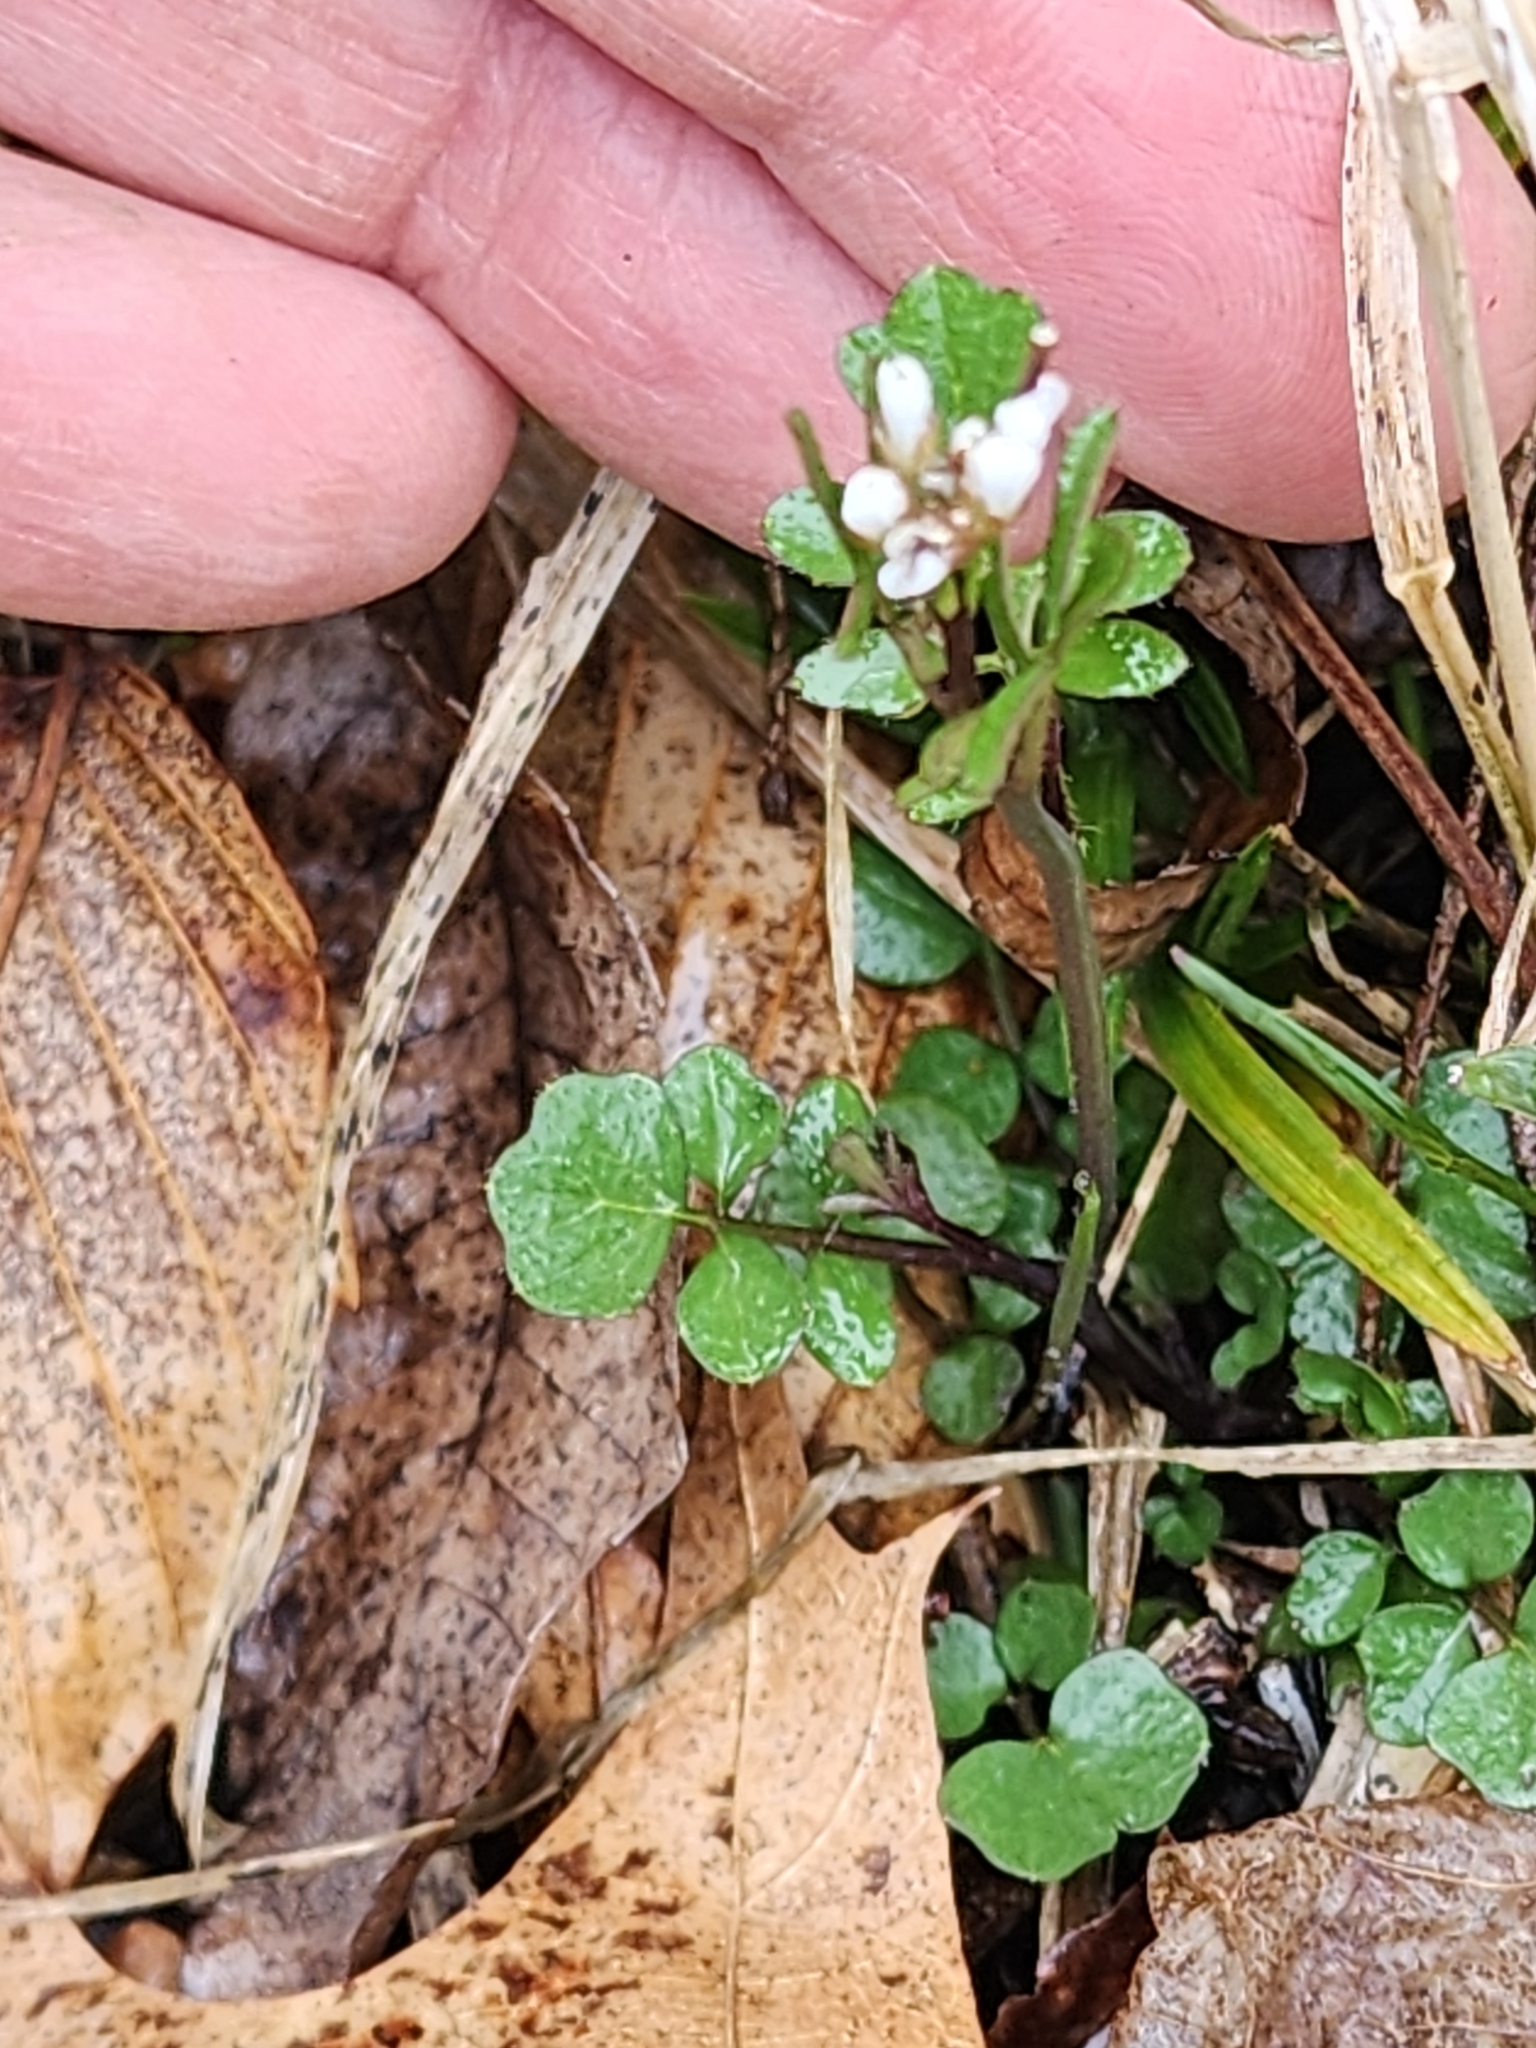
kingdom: Plantae
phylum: Tracheophyta
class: Magnoliopsida
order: Brassicales
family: Brassicaceae
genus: Cardamine
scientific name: Cardamine hirsuta
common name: Hairy bittercress
